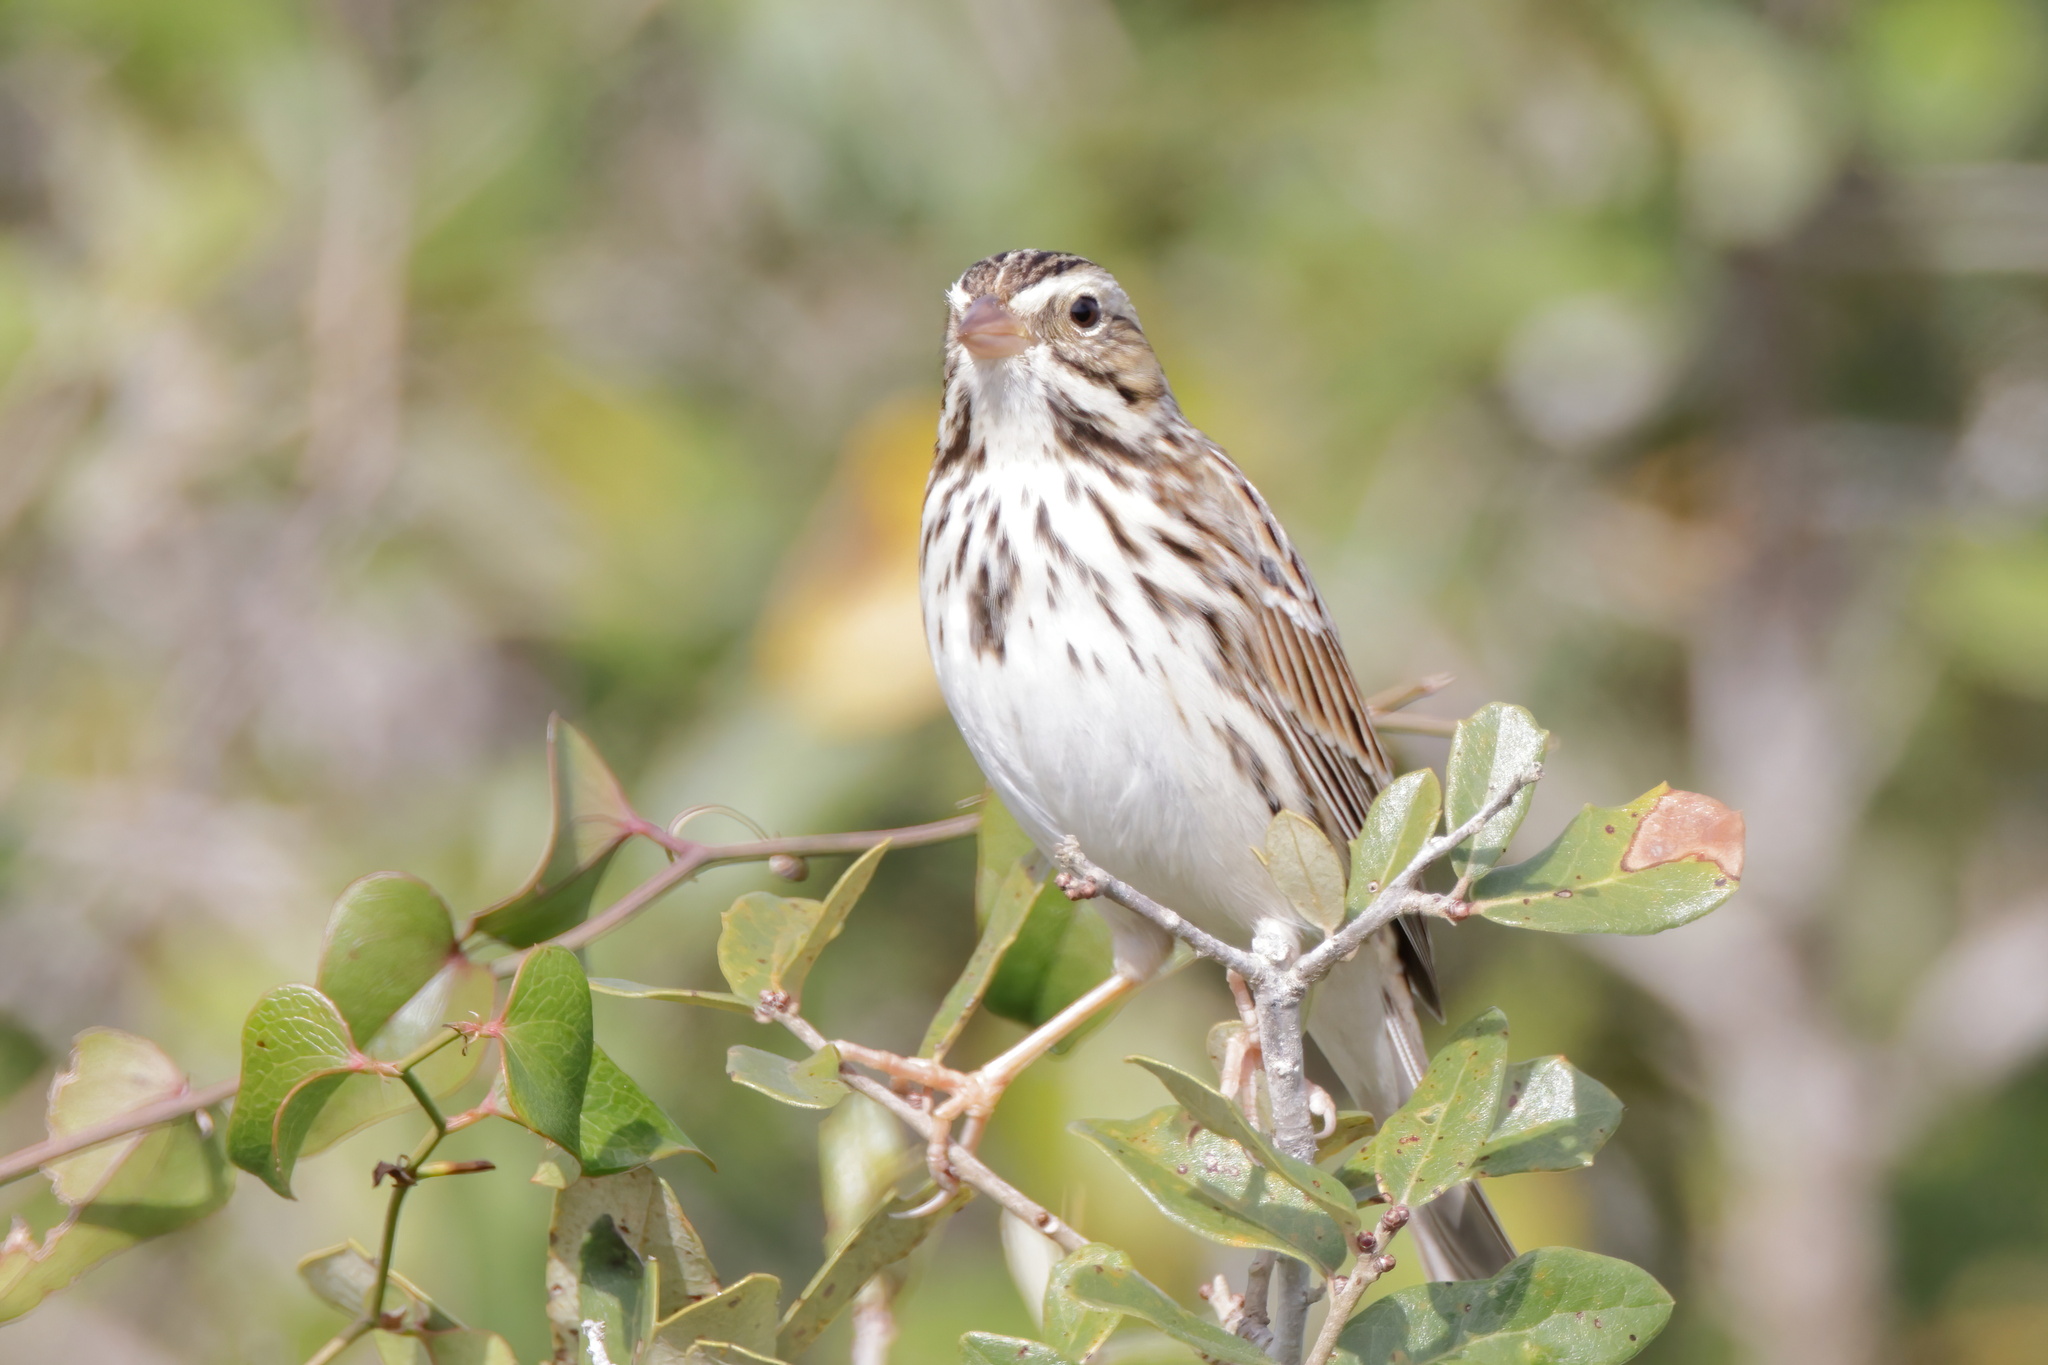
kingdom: Animalia
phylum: Chordata
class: Aves
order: Passeriformes
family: Passerellidae
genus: Passerculus
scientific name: Passerculus sandwichensis
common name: Savannah sparrow
